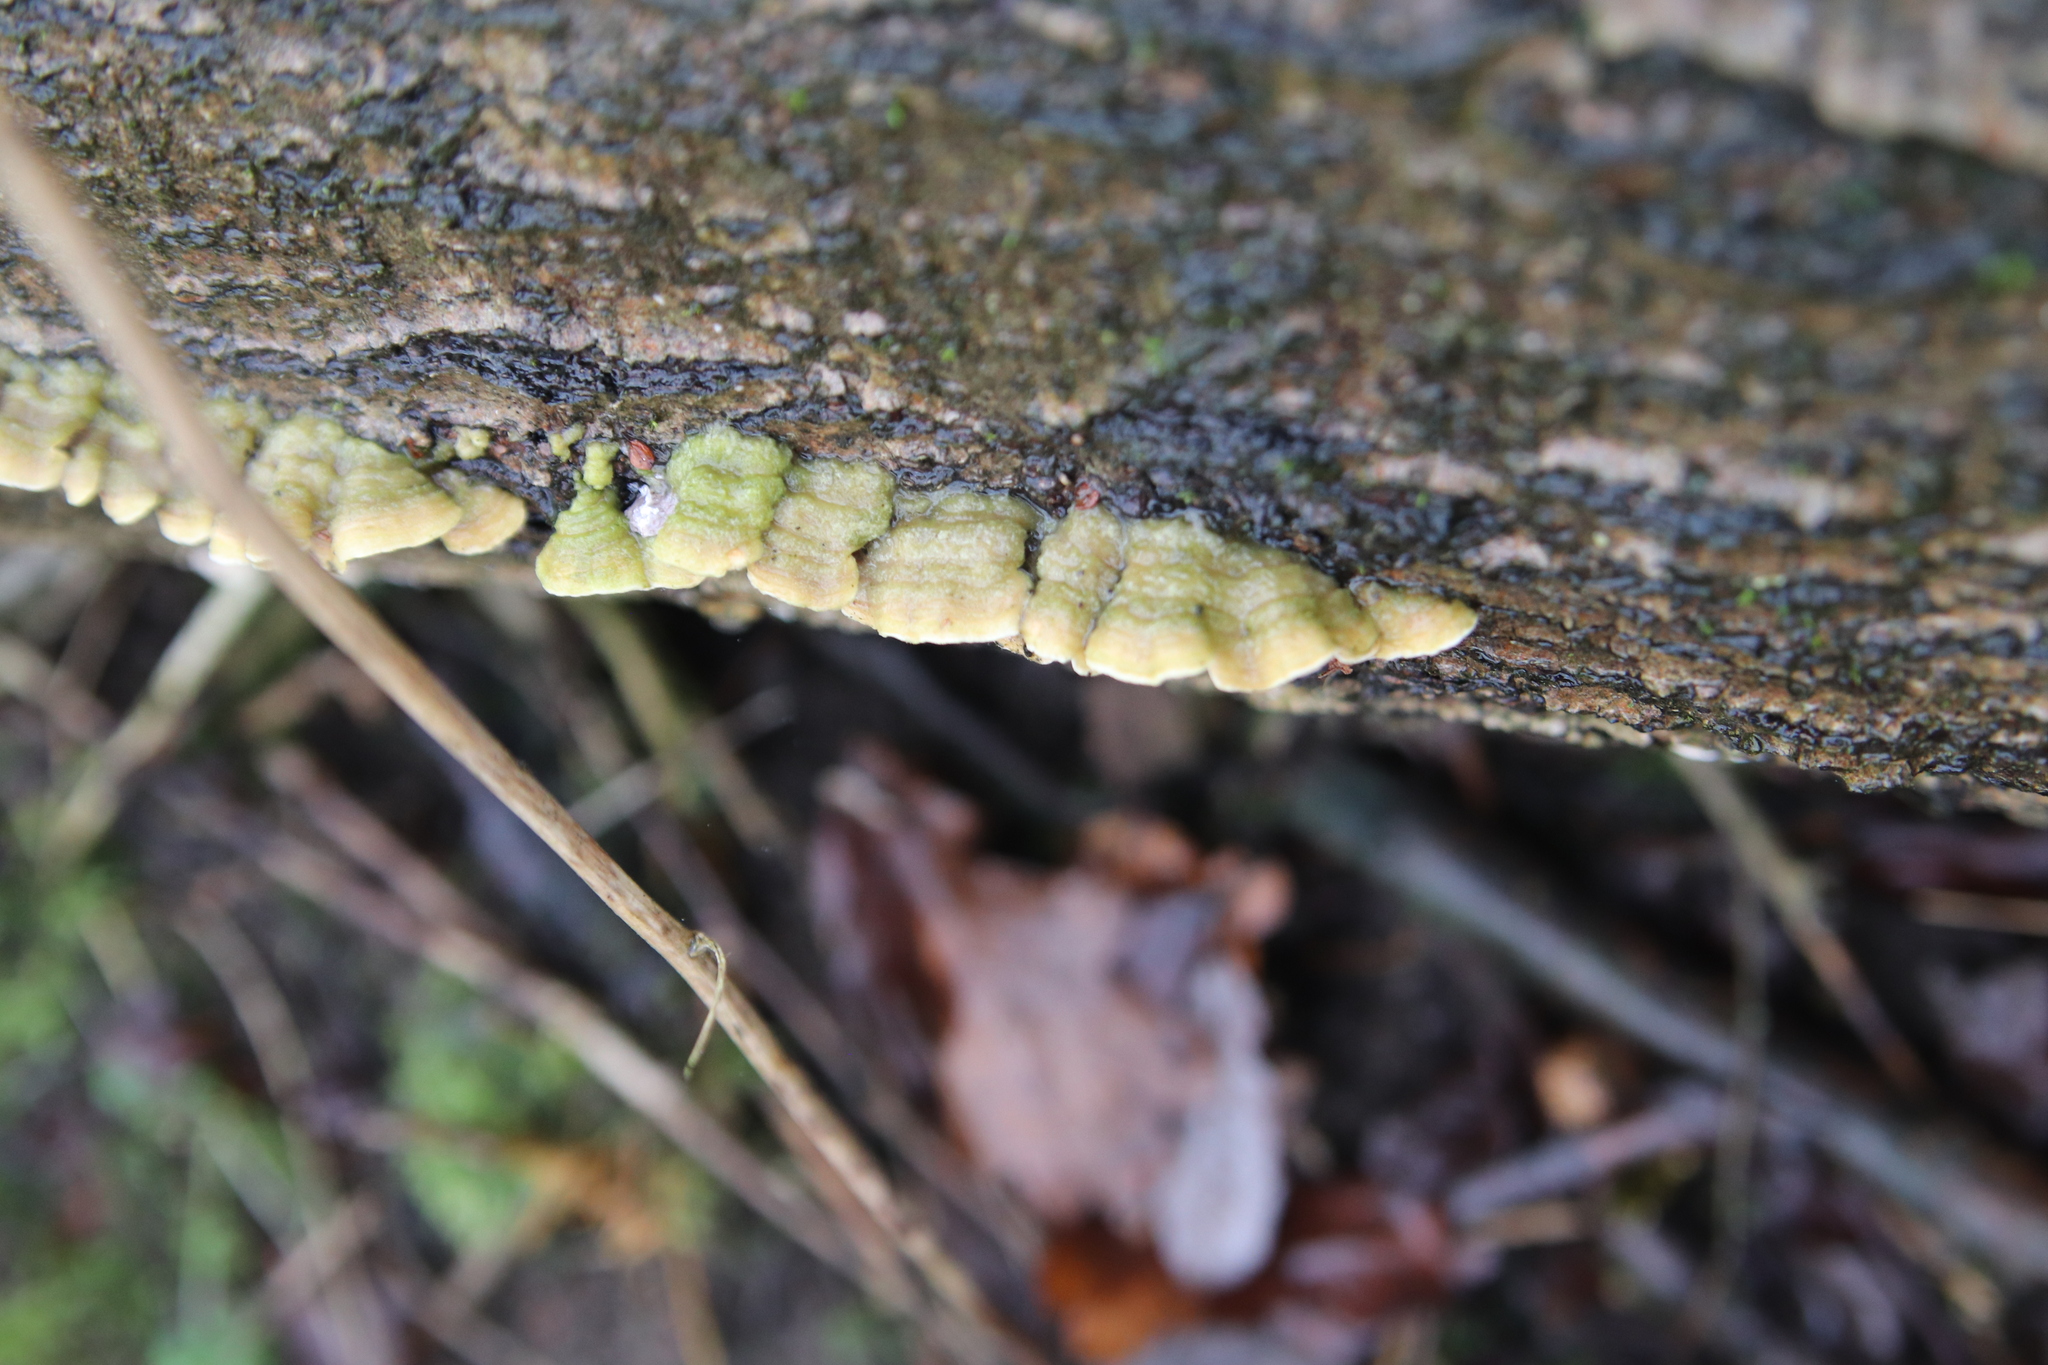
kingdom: Fungi
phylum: Basidiomycota
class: Agaricomycetes
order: Polyporales
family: Steccherinaceae
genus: Steccherinum
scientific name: Steccherinum bourdotii
